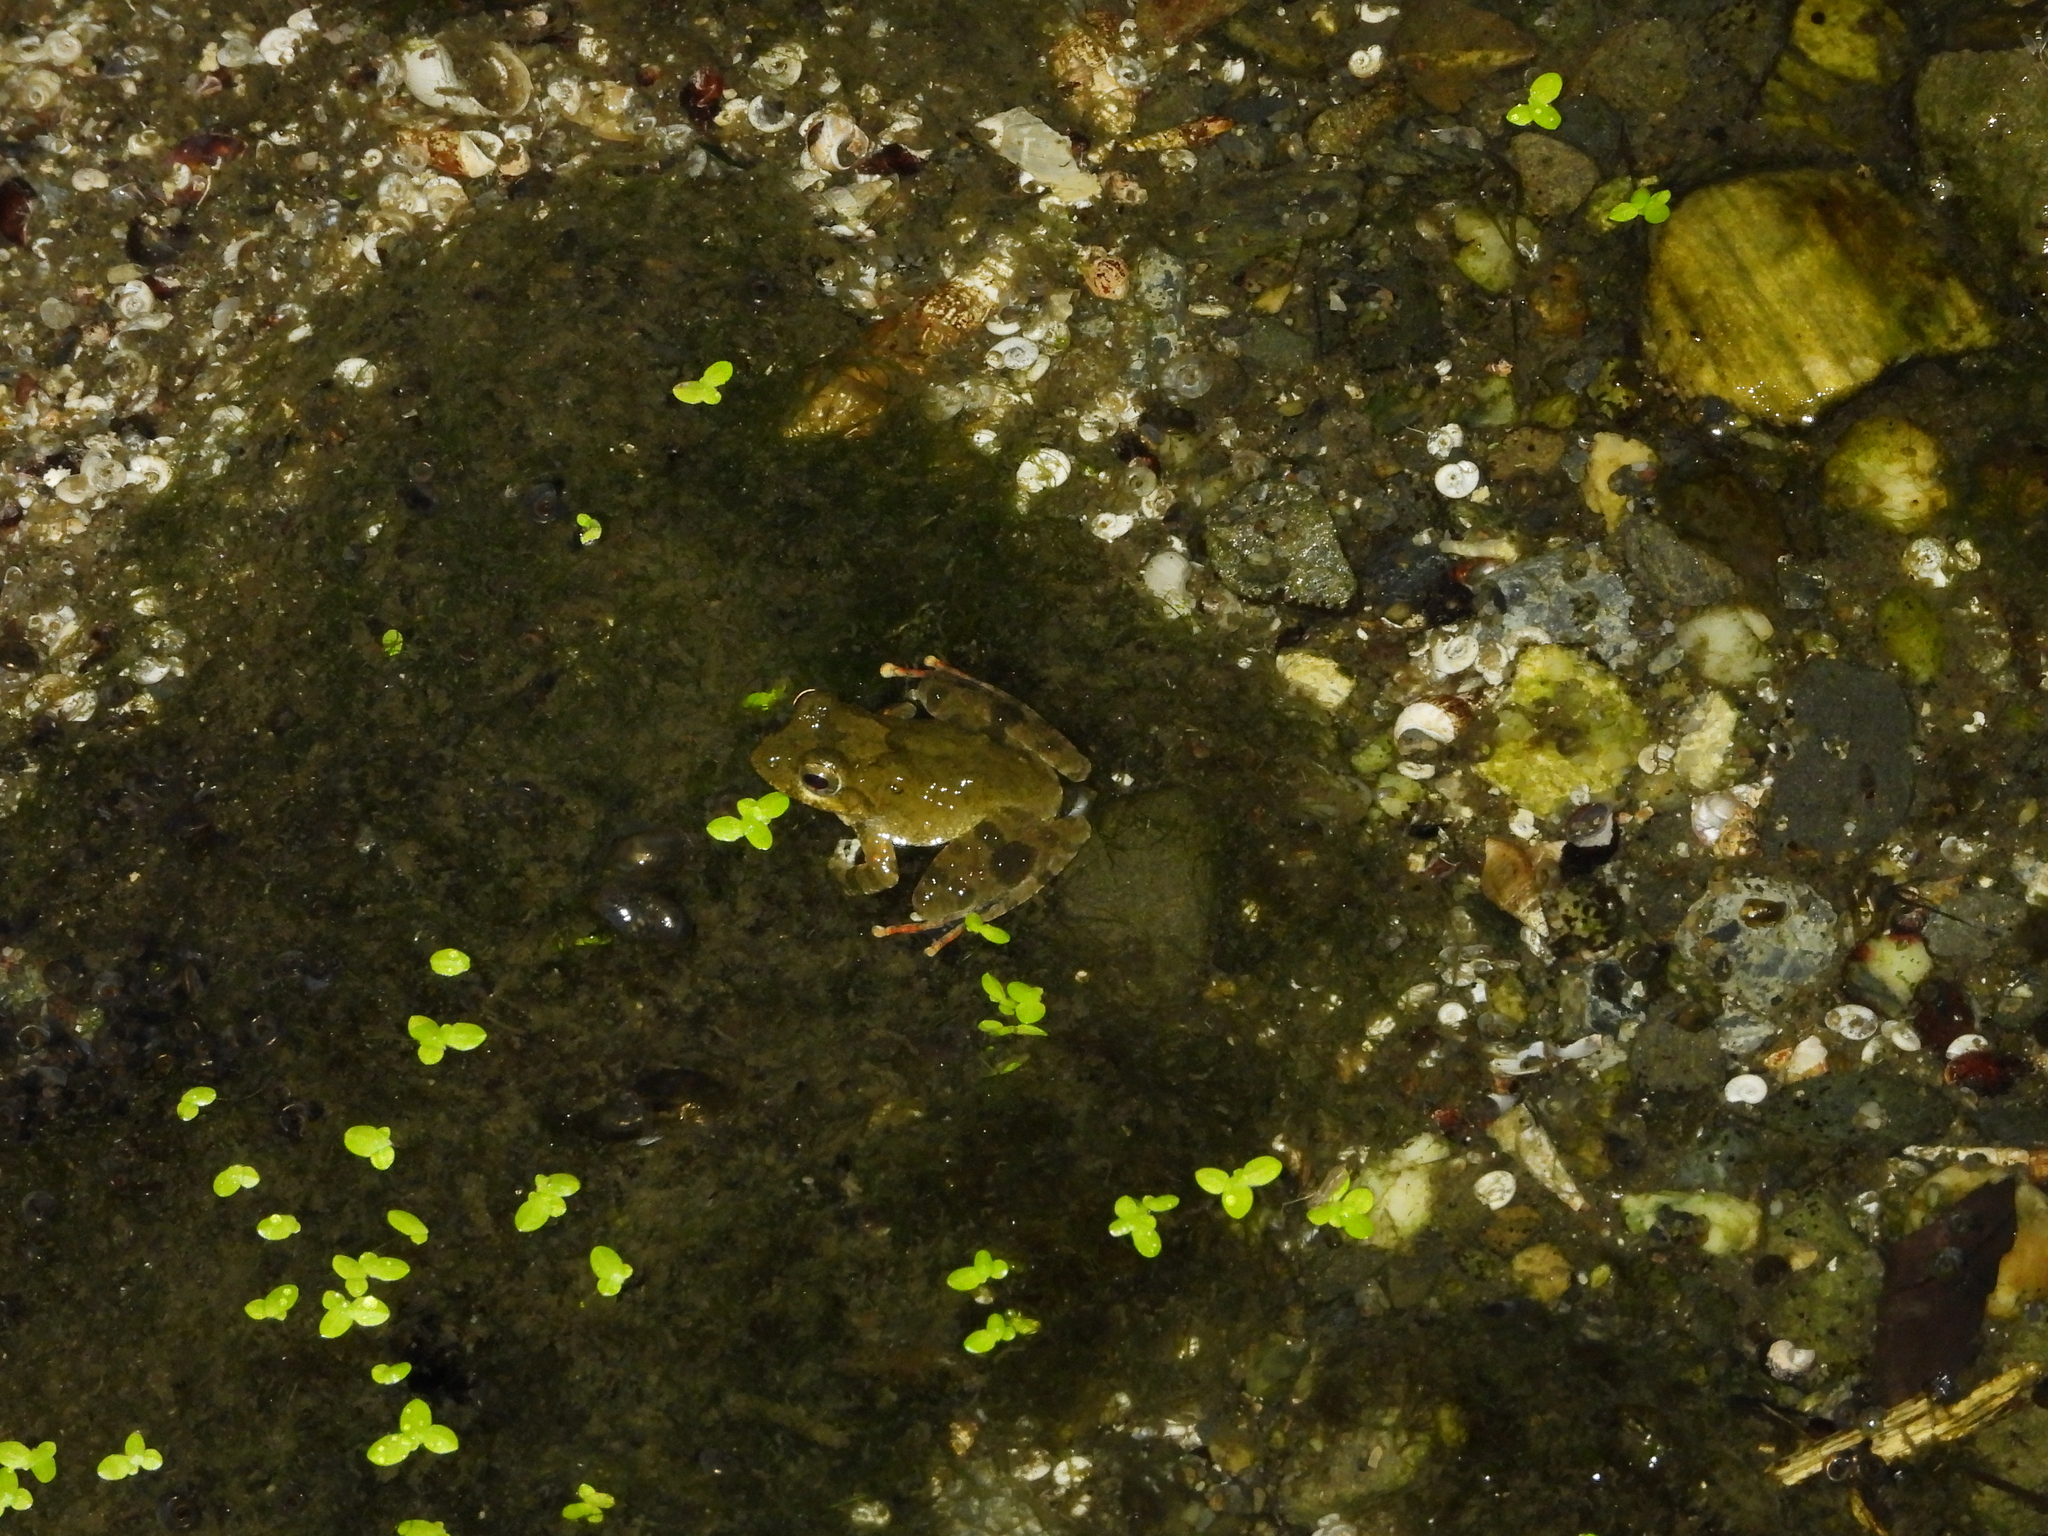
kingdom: Animalia
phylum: Chordata
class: Amphibia
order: Anura
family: Rhacophoridae
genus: Buergeria
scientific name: Buergeria otai
